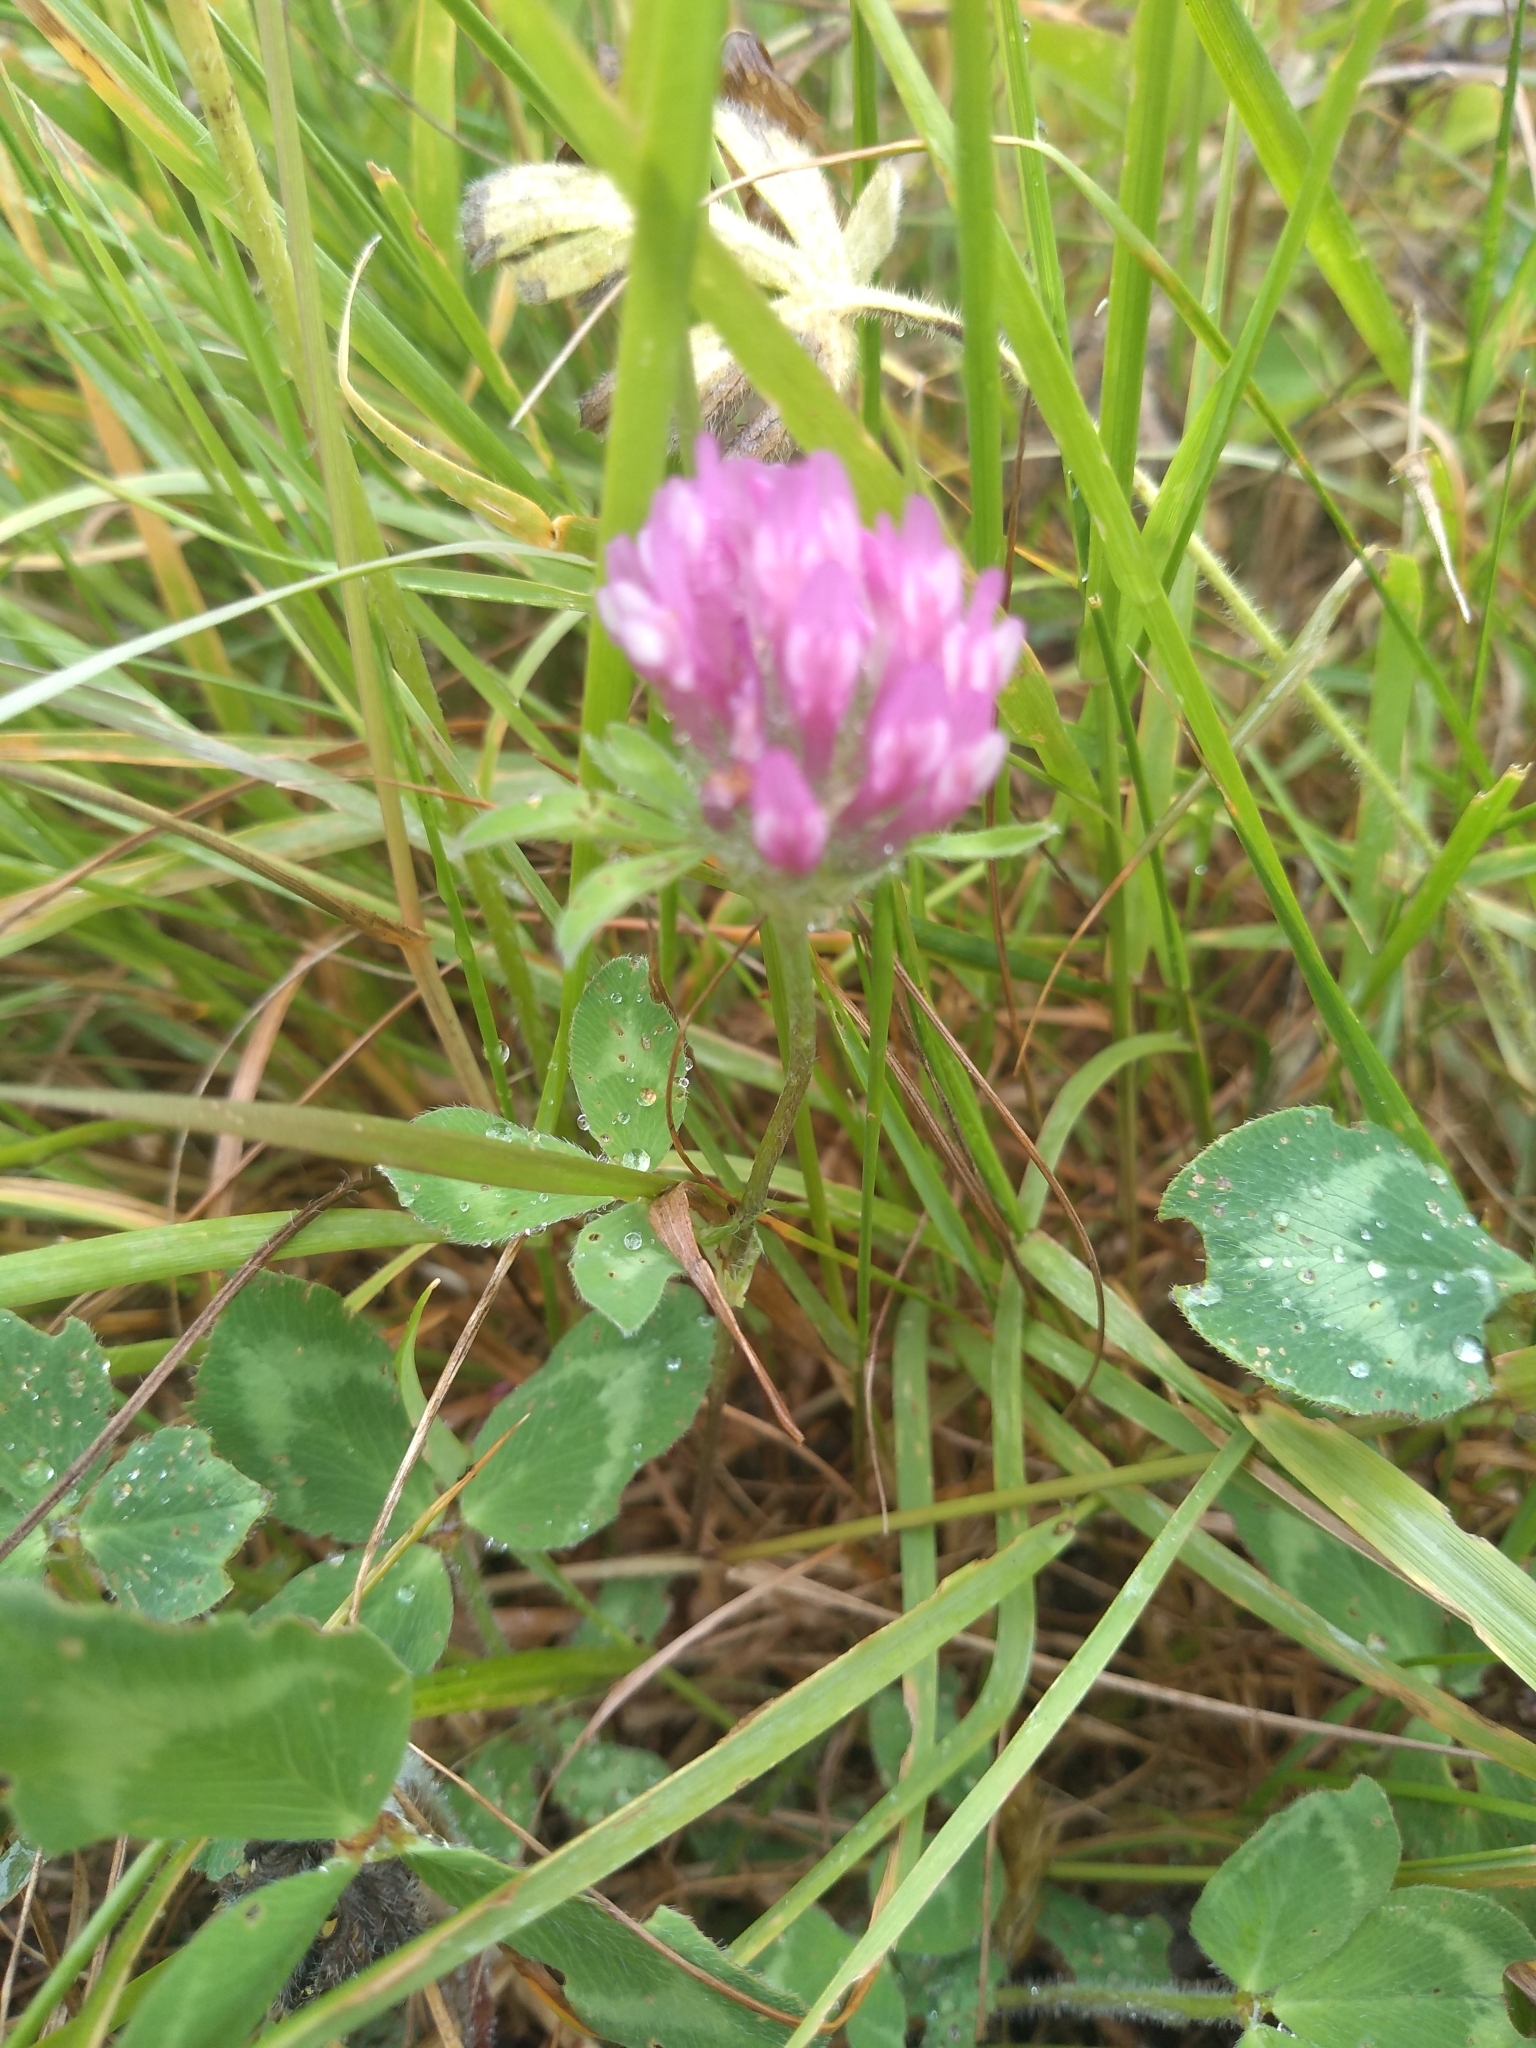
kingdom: Plantae
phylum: Tracheophyta
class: Magnoliopsida
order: Fabales
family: Fabaceae
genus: Trifolium
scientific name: Trifolium pratense
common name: Red clover
